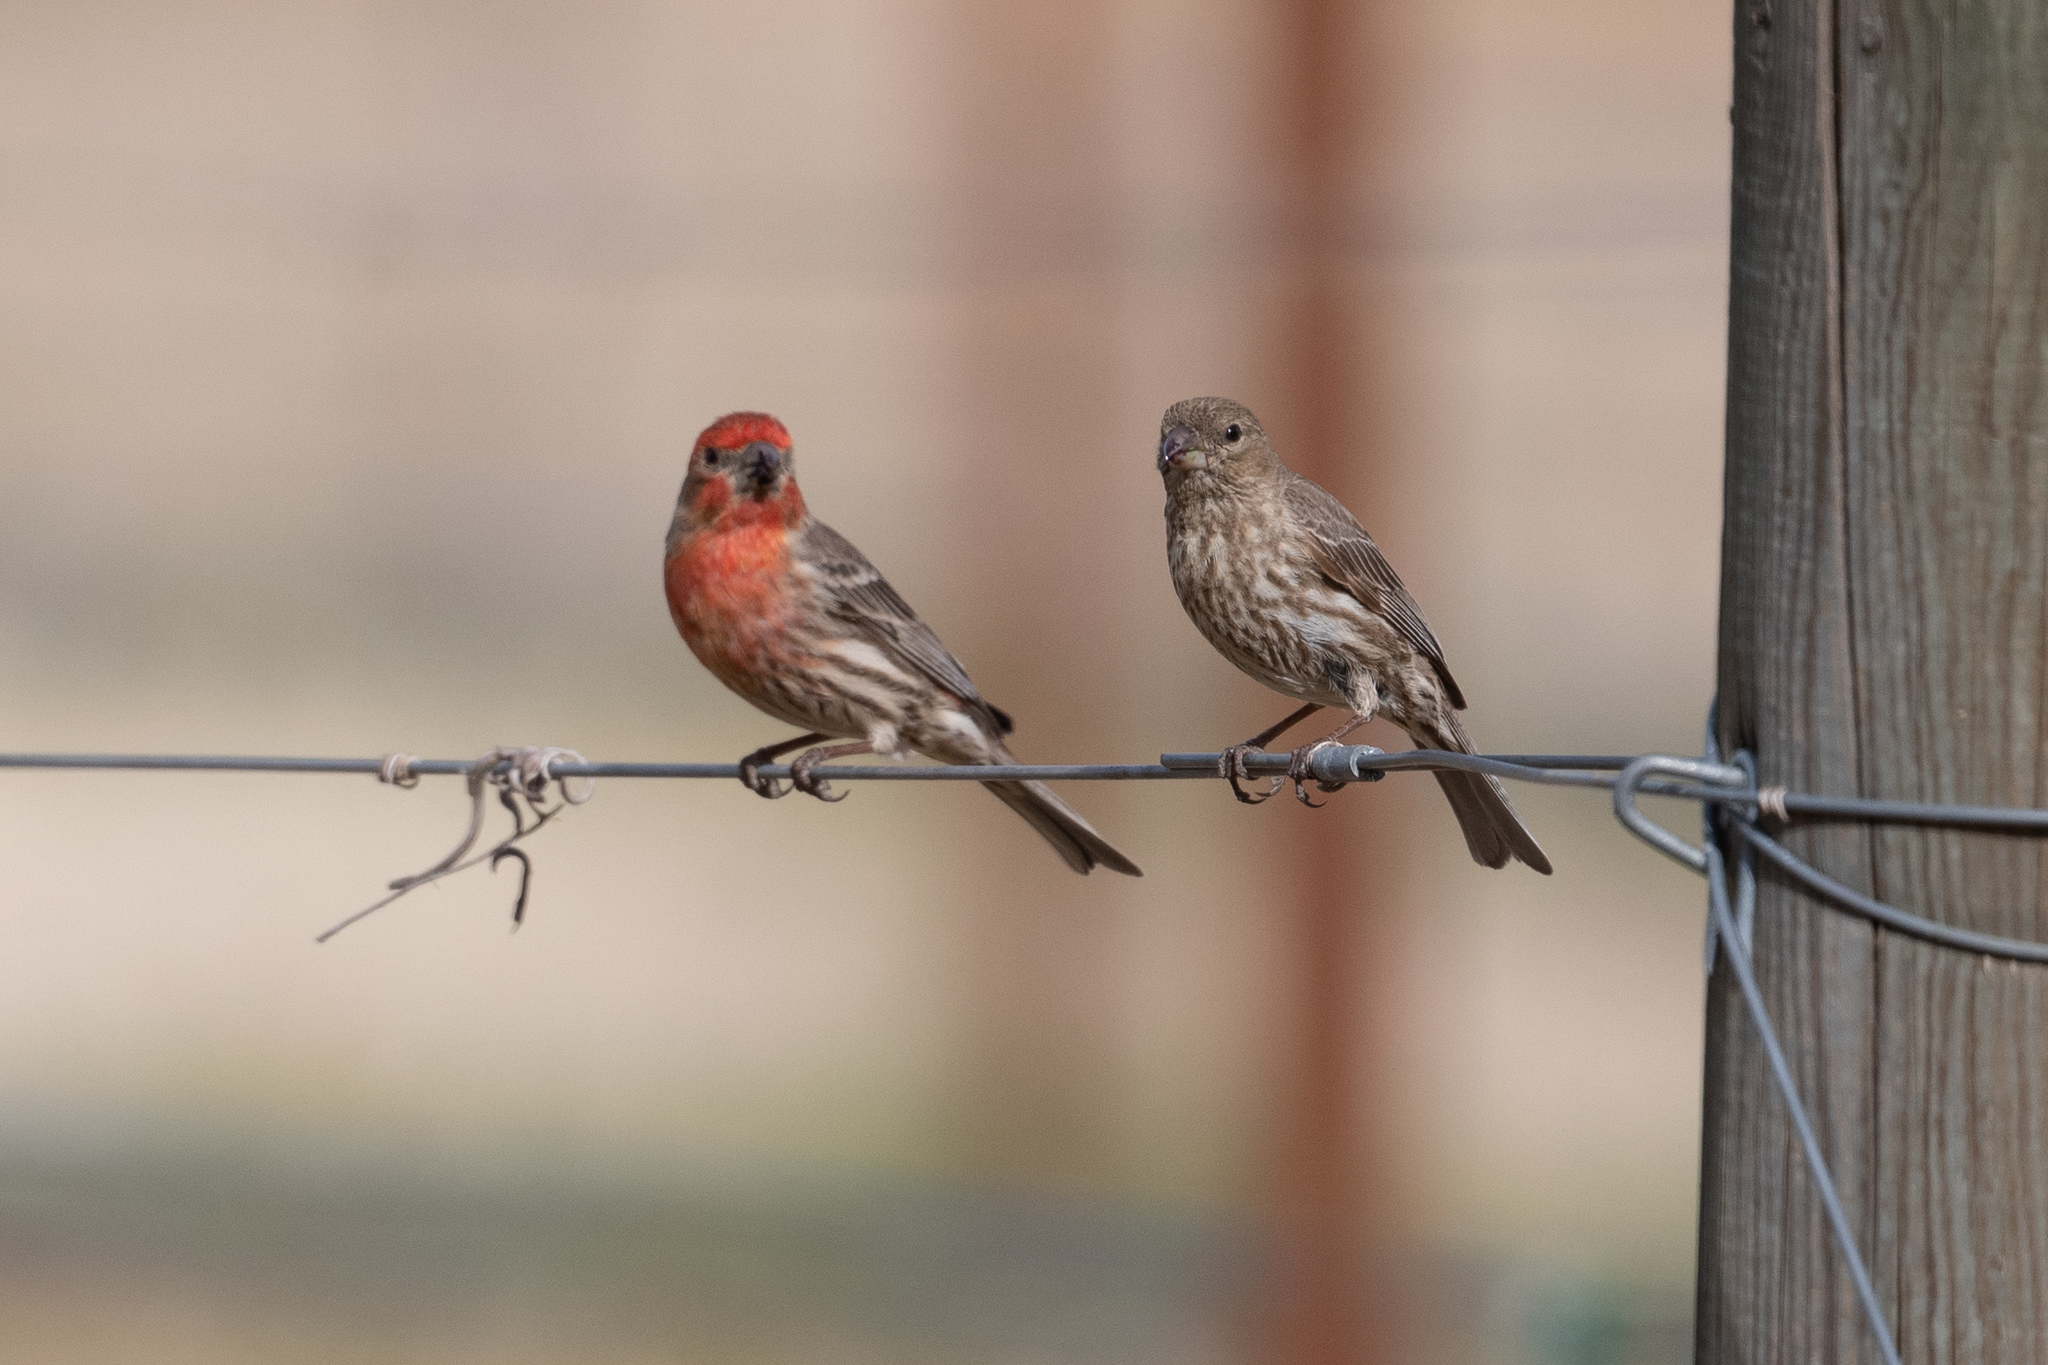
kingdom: Animalia
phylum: Chordata
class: Aves
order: Passeriformes
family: Fringillidae
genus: Haemorhous
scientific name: Haemorhous mexicanus
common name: House finch
